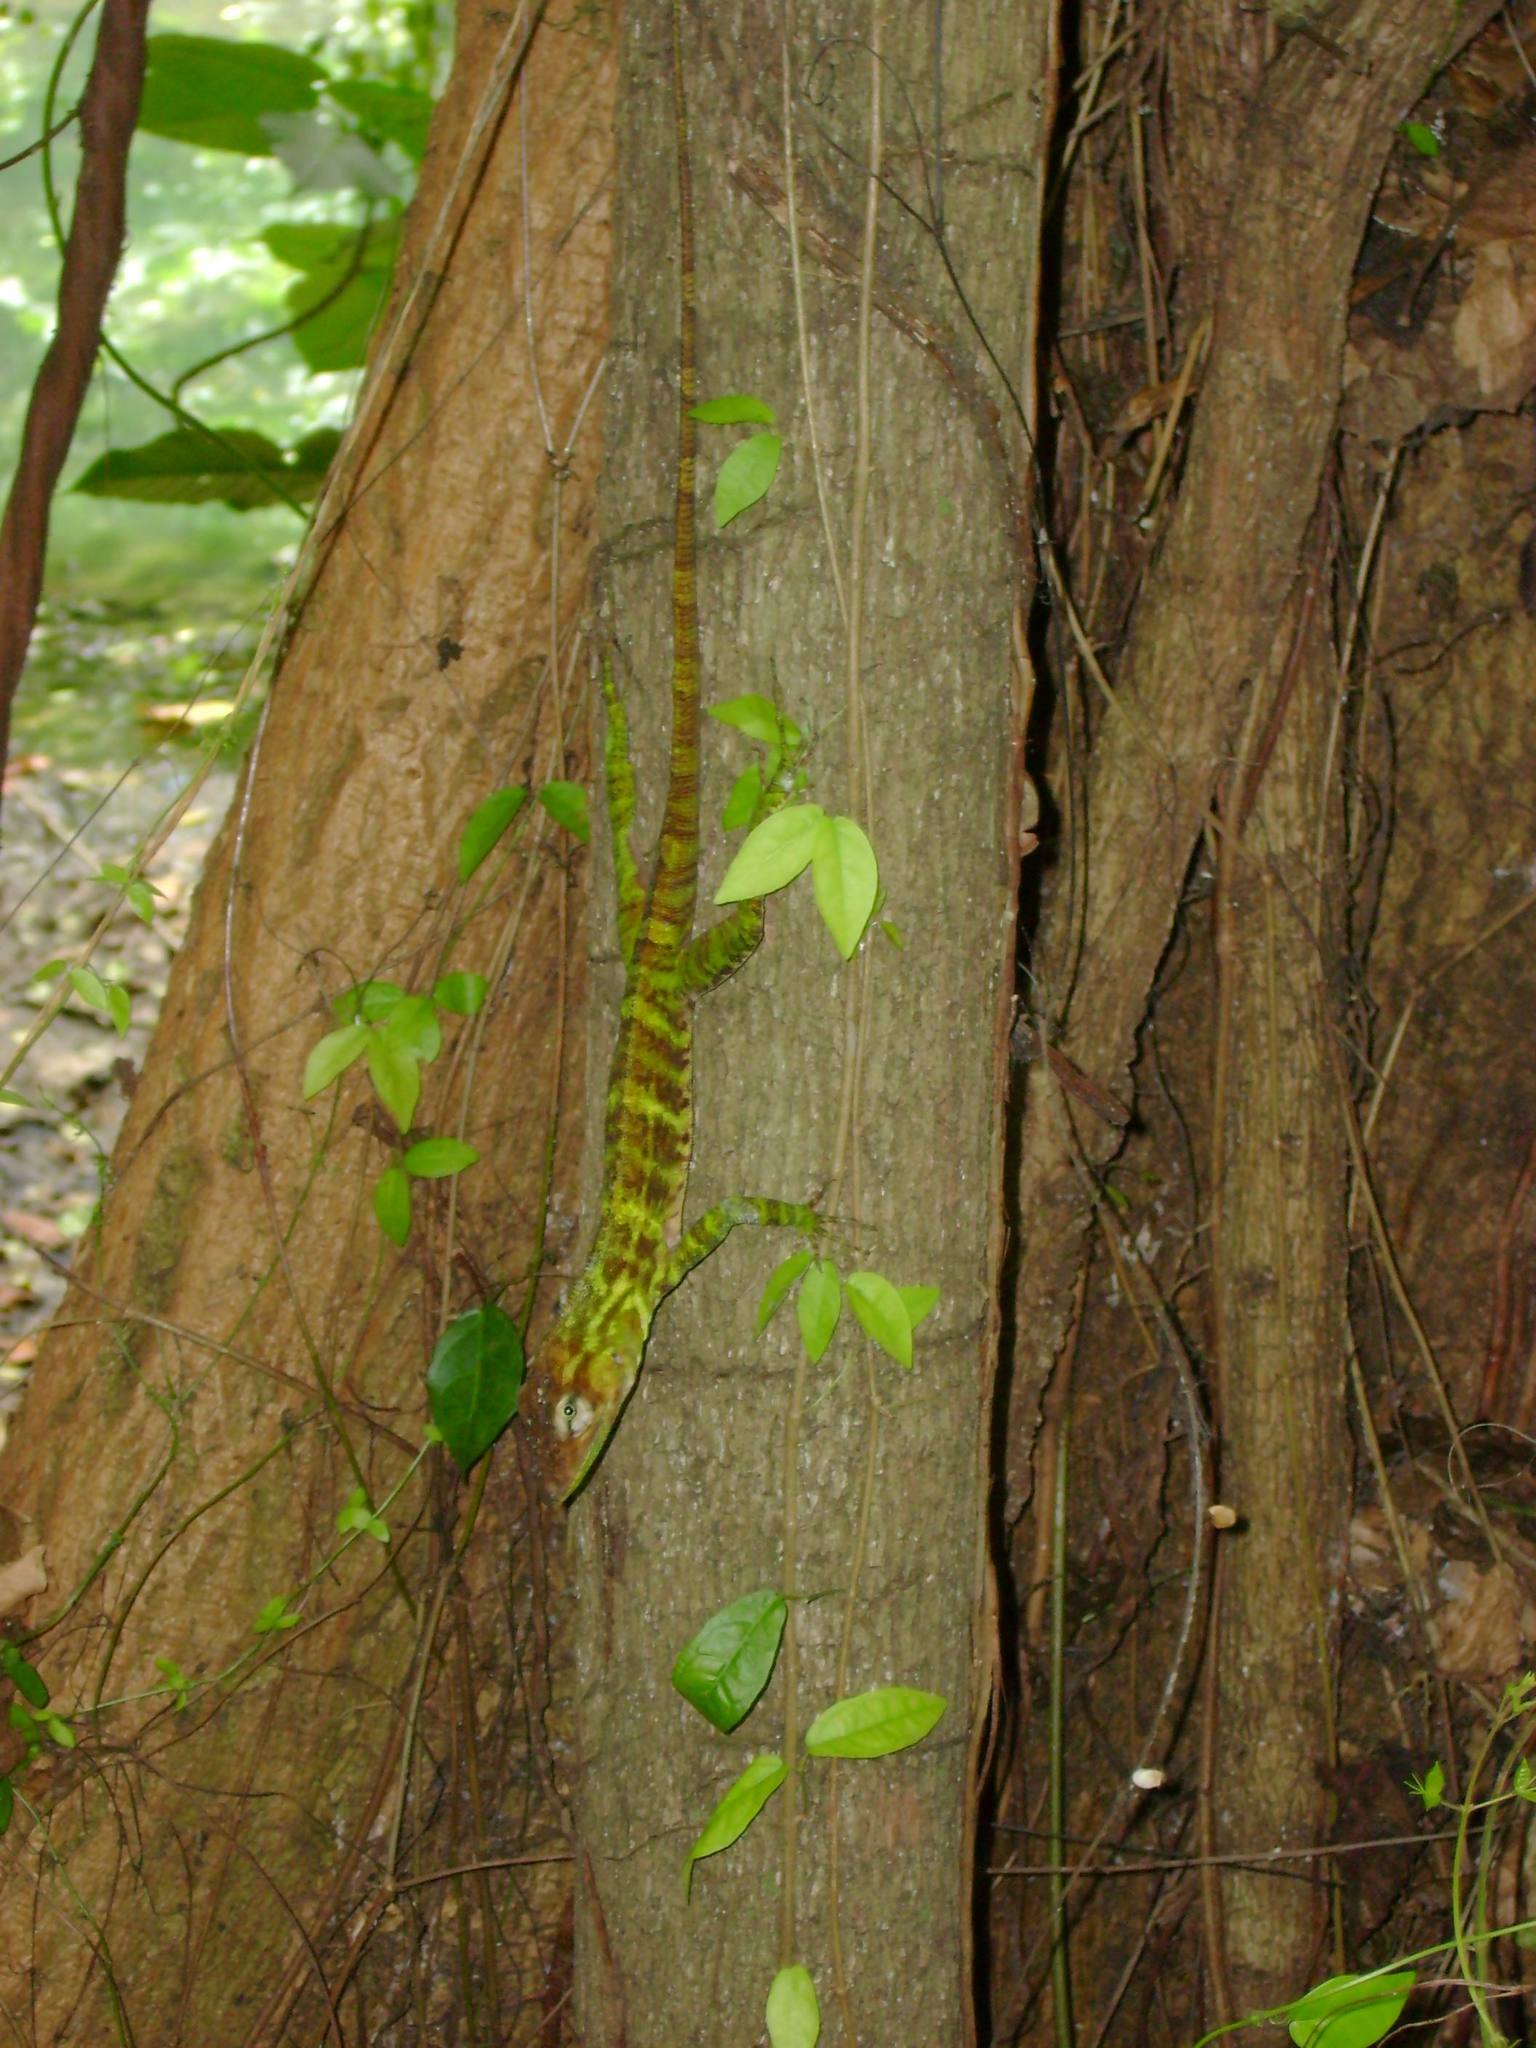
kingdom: Animalia
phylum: Chordata
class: Squamata
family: Dactyloidae
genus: Anolis
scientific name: Anolis baleatus
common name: Dominican giant anole
